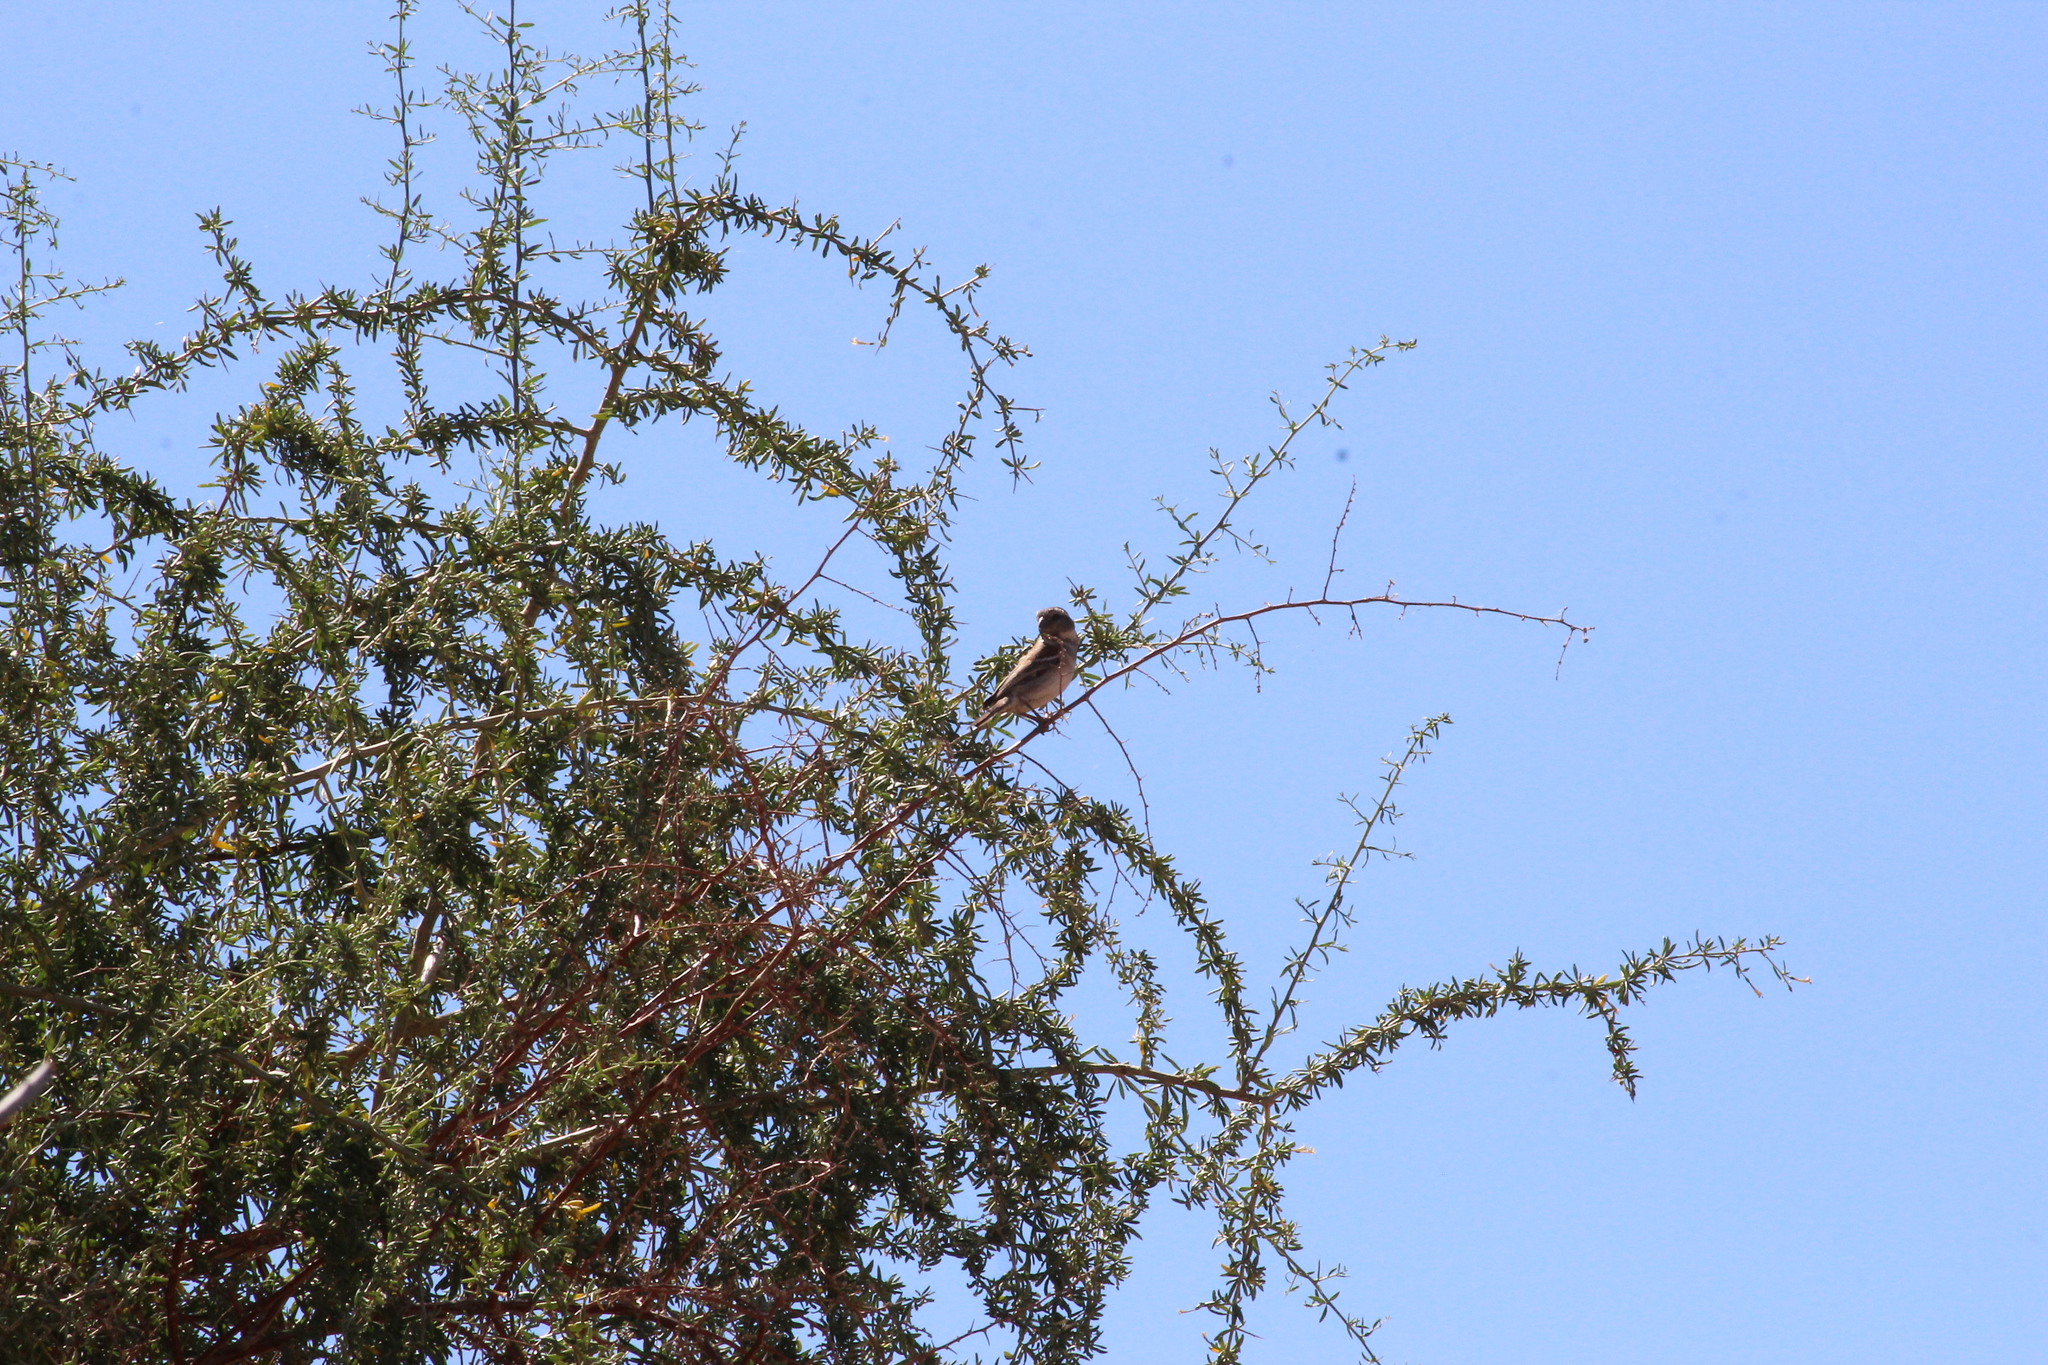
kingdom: Animalia
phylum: Chordata
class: Aves
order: Passeriformes
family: Passeridae
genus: Passer
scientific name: Passer melanurus
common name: Cape sparrow
